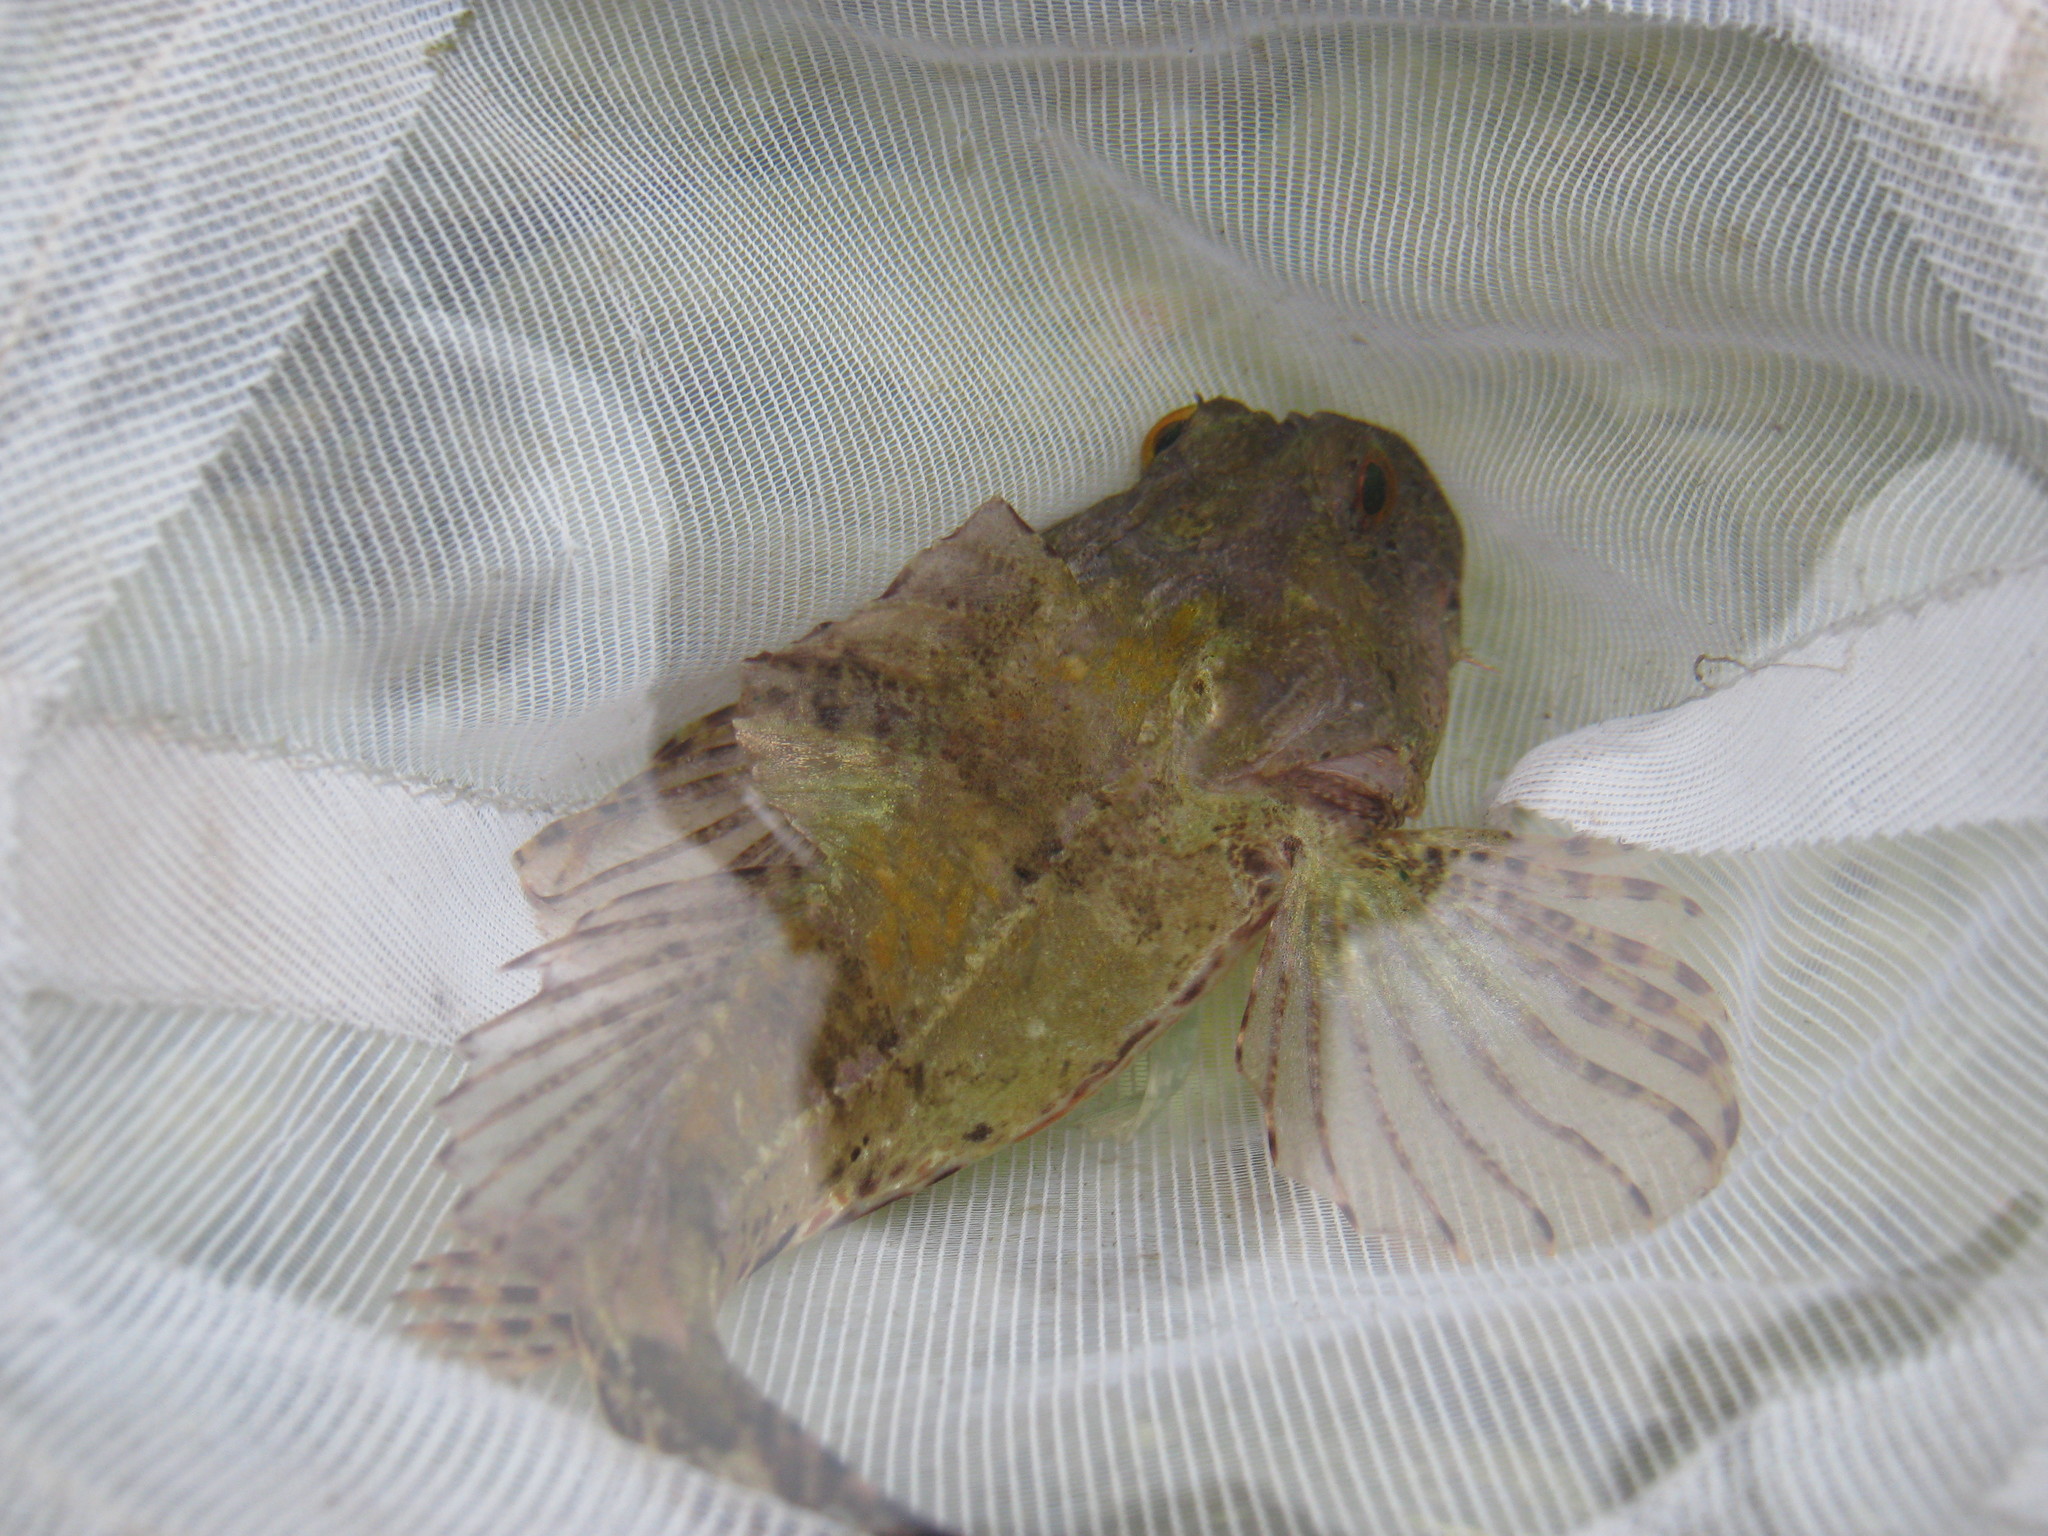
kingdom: Animalia
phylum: Chordata
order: Scorpaeniformes
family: Cottidae
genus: Taurulus
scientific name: Taurulus bubalis
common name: Sea scorpion
